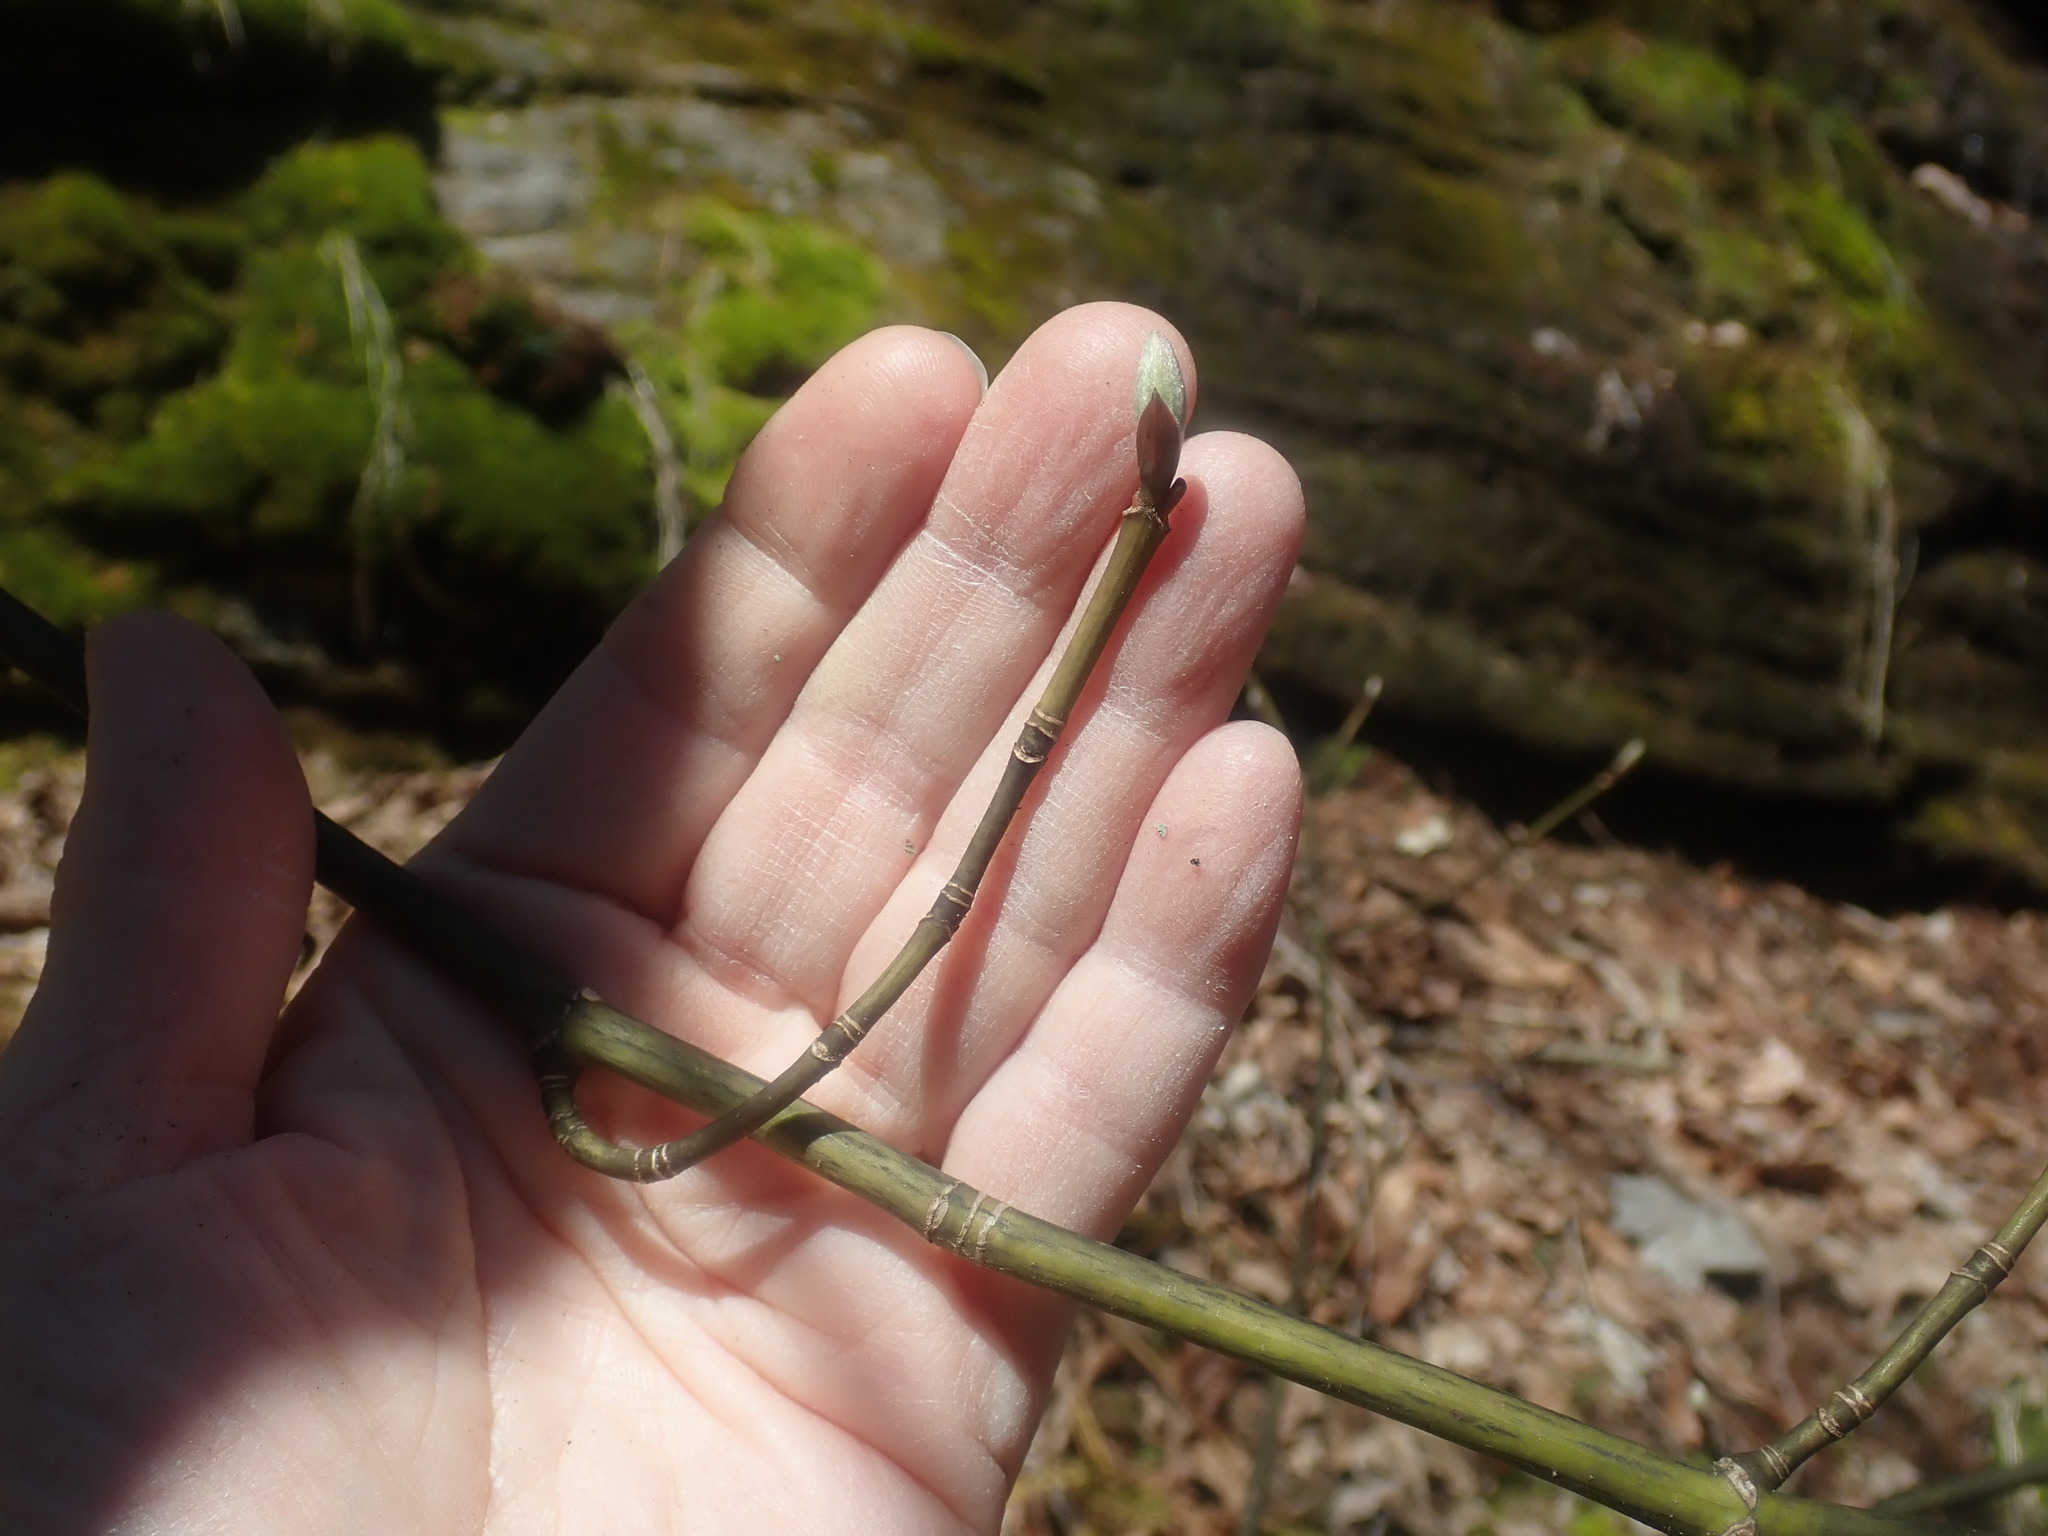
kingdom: Plantae
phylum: Tracheophyta
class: Magnoliopsida
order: Sapindales
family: Sapindaceae
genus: Acer
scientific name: Acer pensylvanicum
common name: Moosewood
